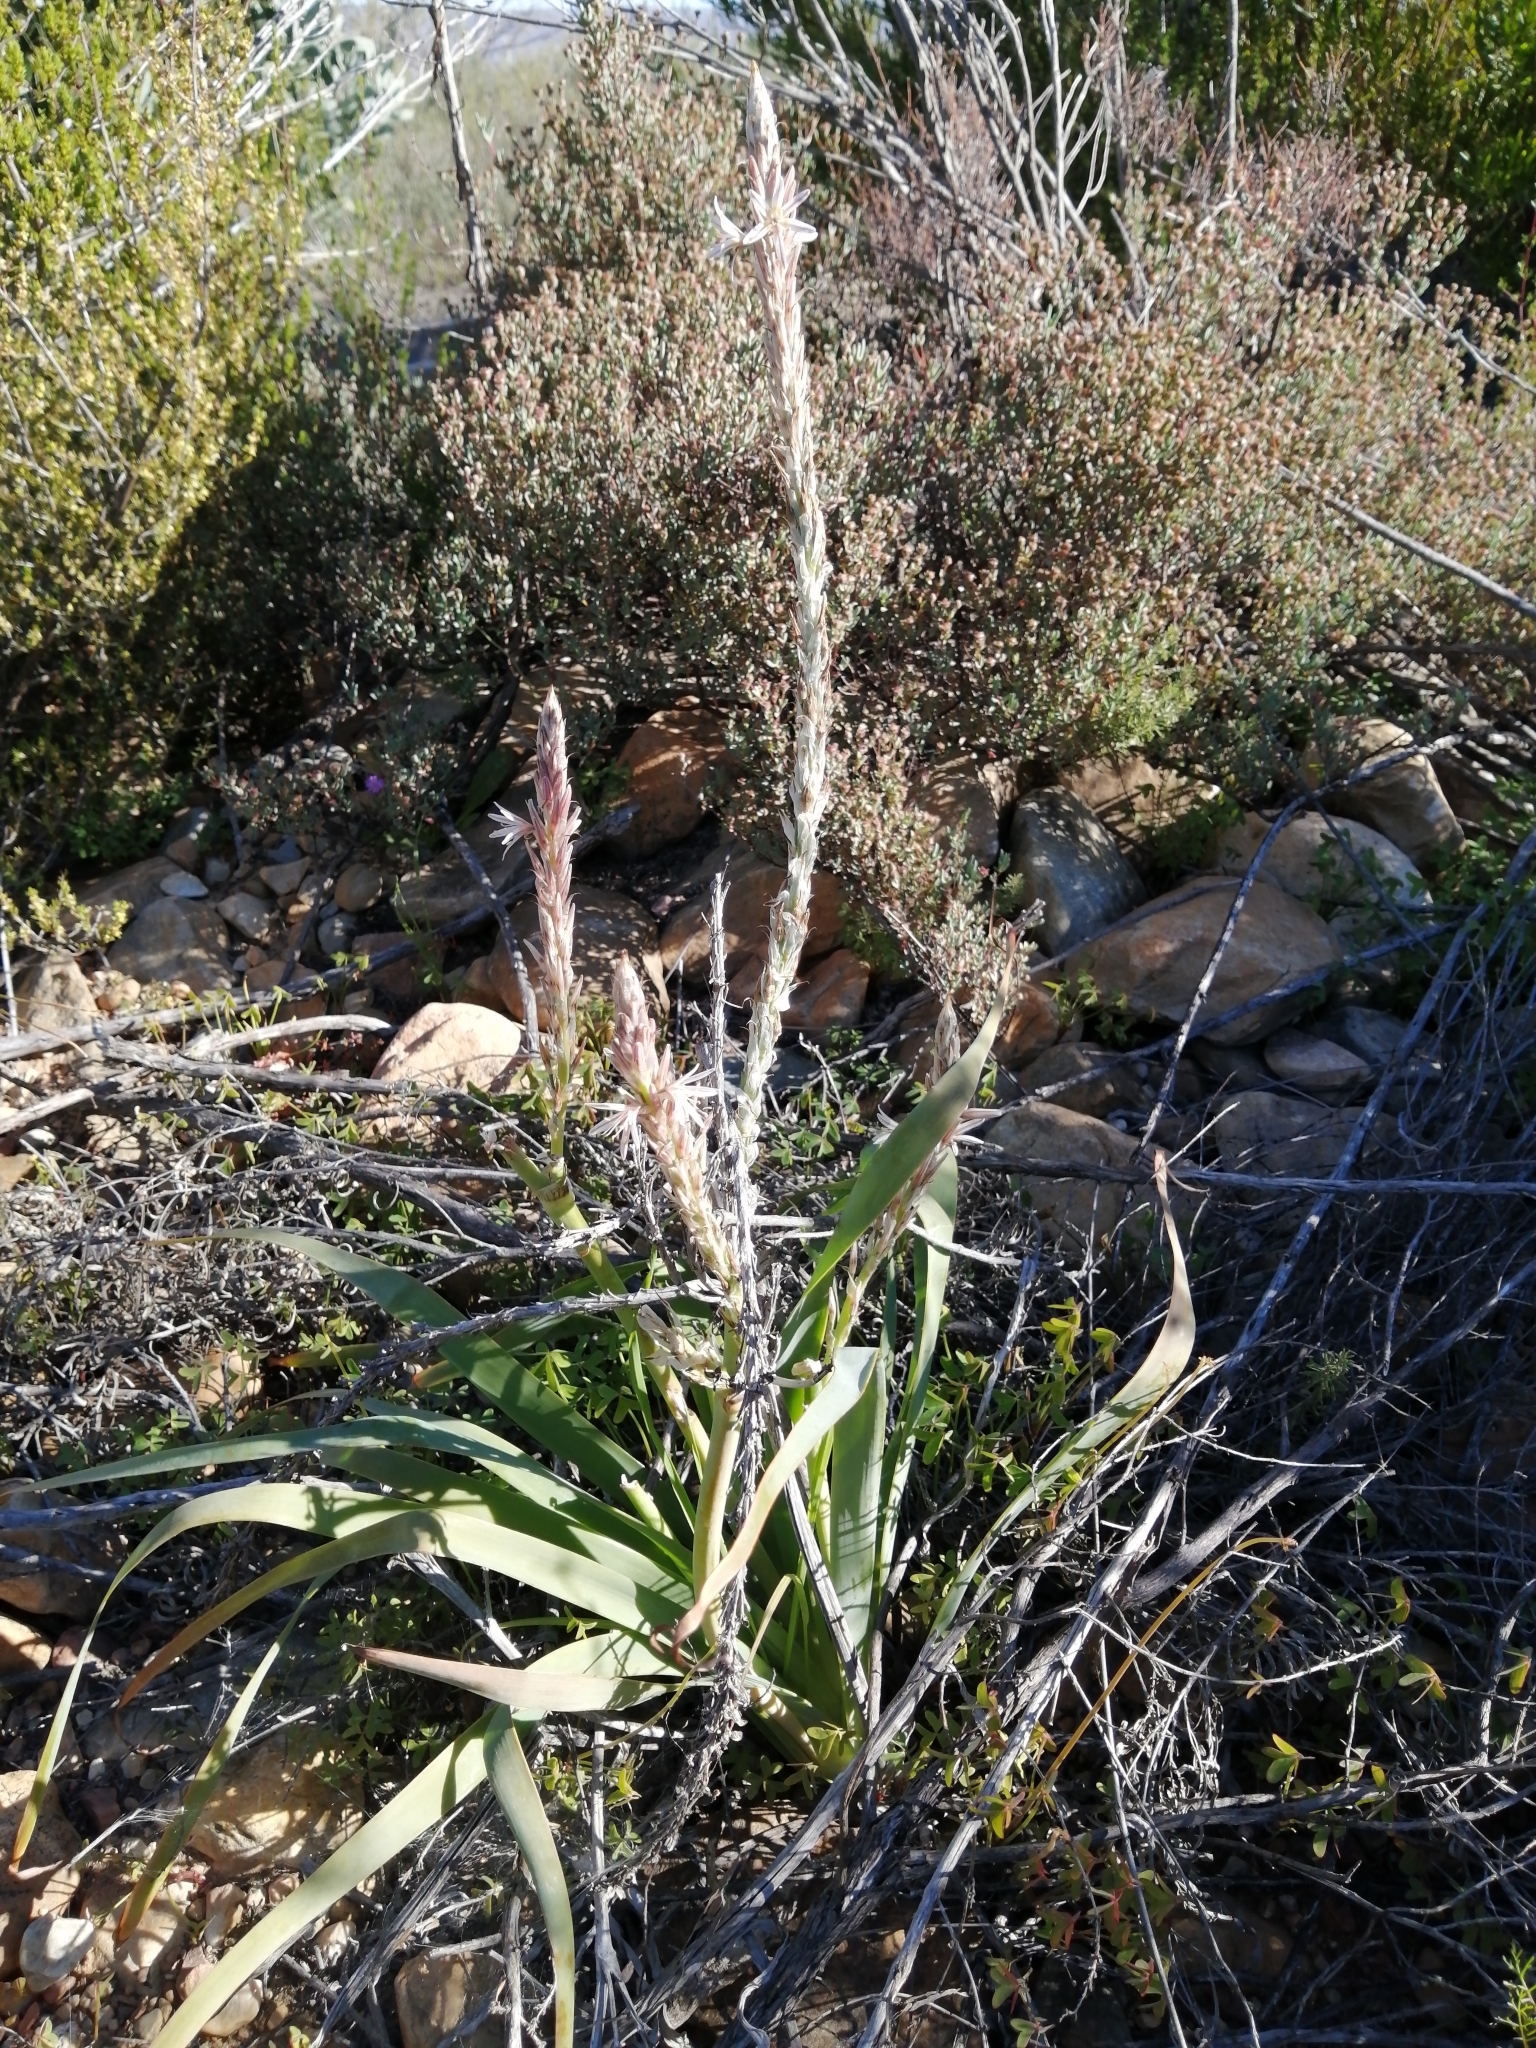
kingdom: Plantae
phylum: Tracheophyta
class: Liliopsida
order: Asparagales
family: Asphodelaceae
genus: Trachyandra
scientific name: Trachyandra falcata
